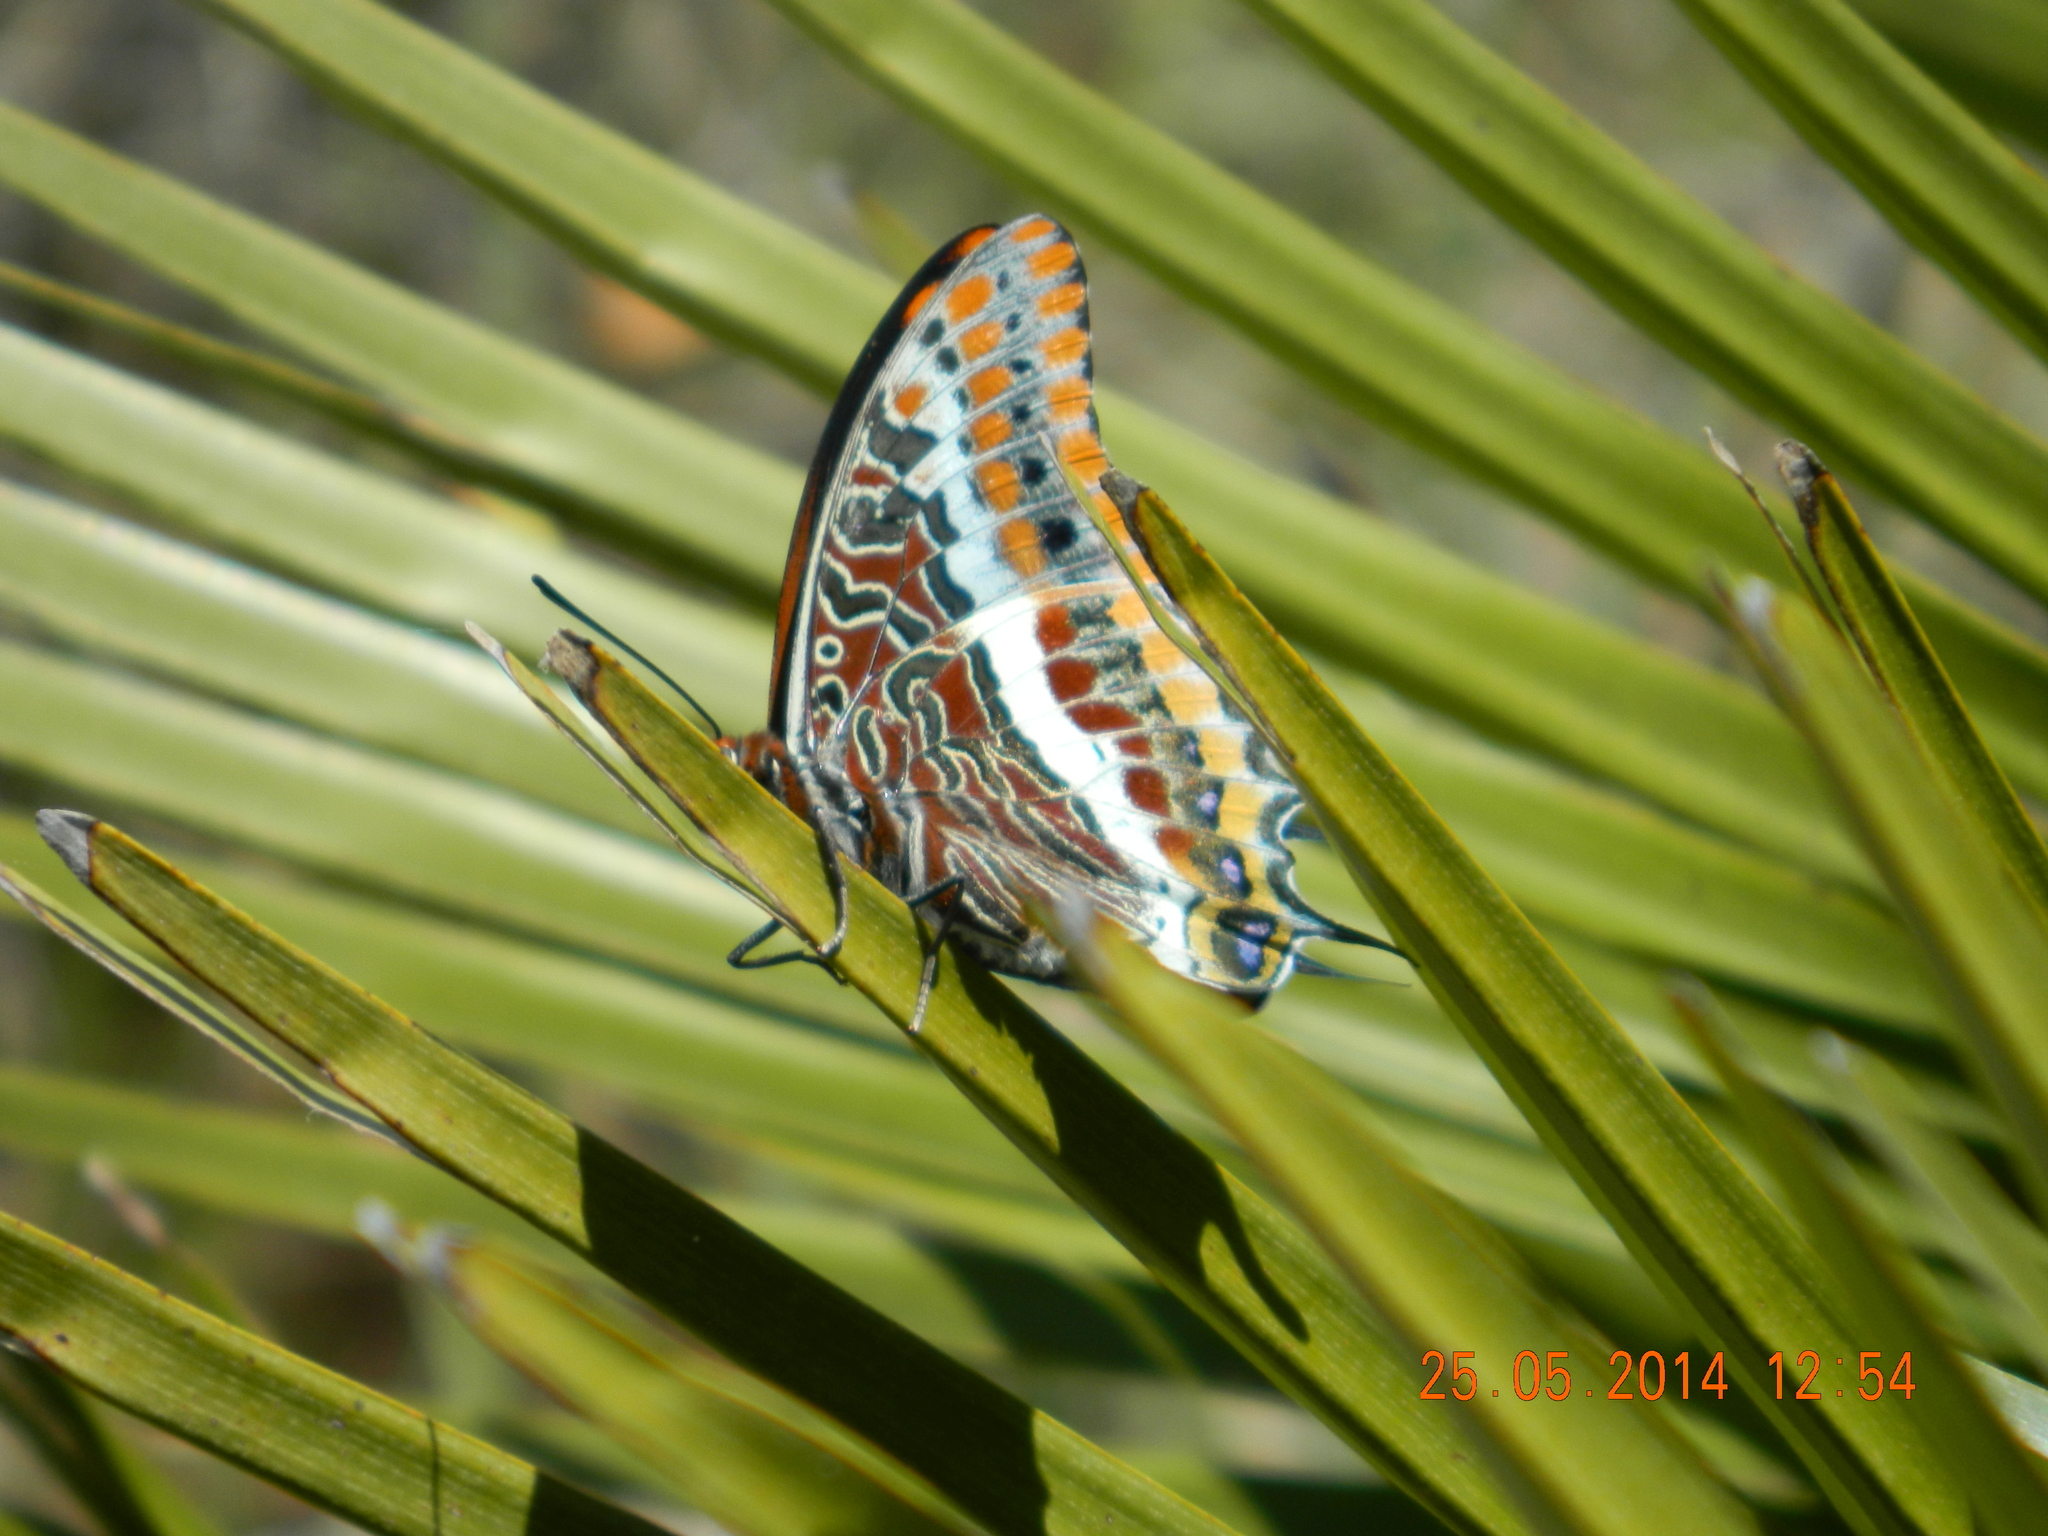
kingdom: Animalia
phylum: Arthropoda
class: Insecta
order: Lepidoptera
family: Nymphalidae
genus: Charaxes
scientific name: Charaxes jasius
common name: Two tailed pasha
